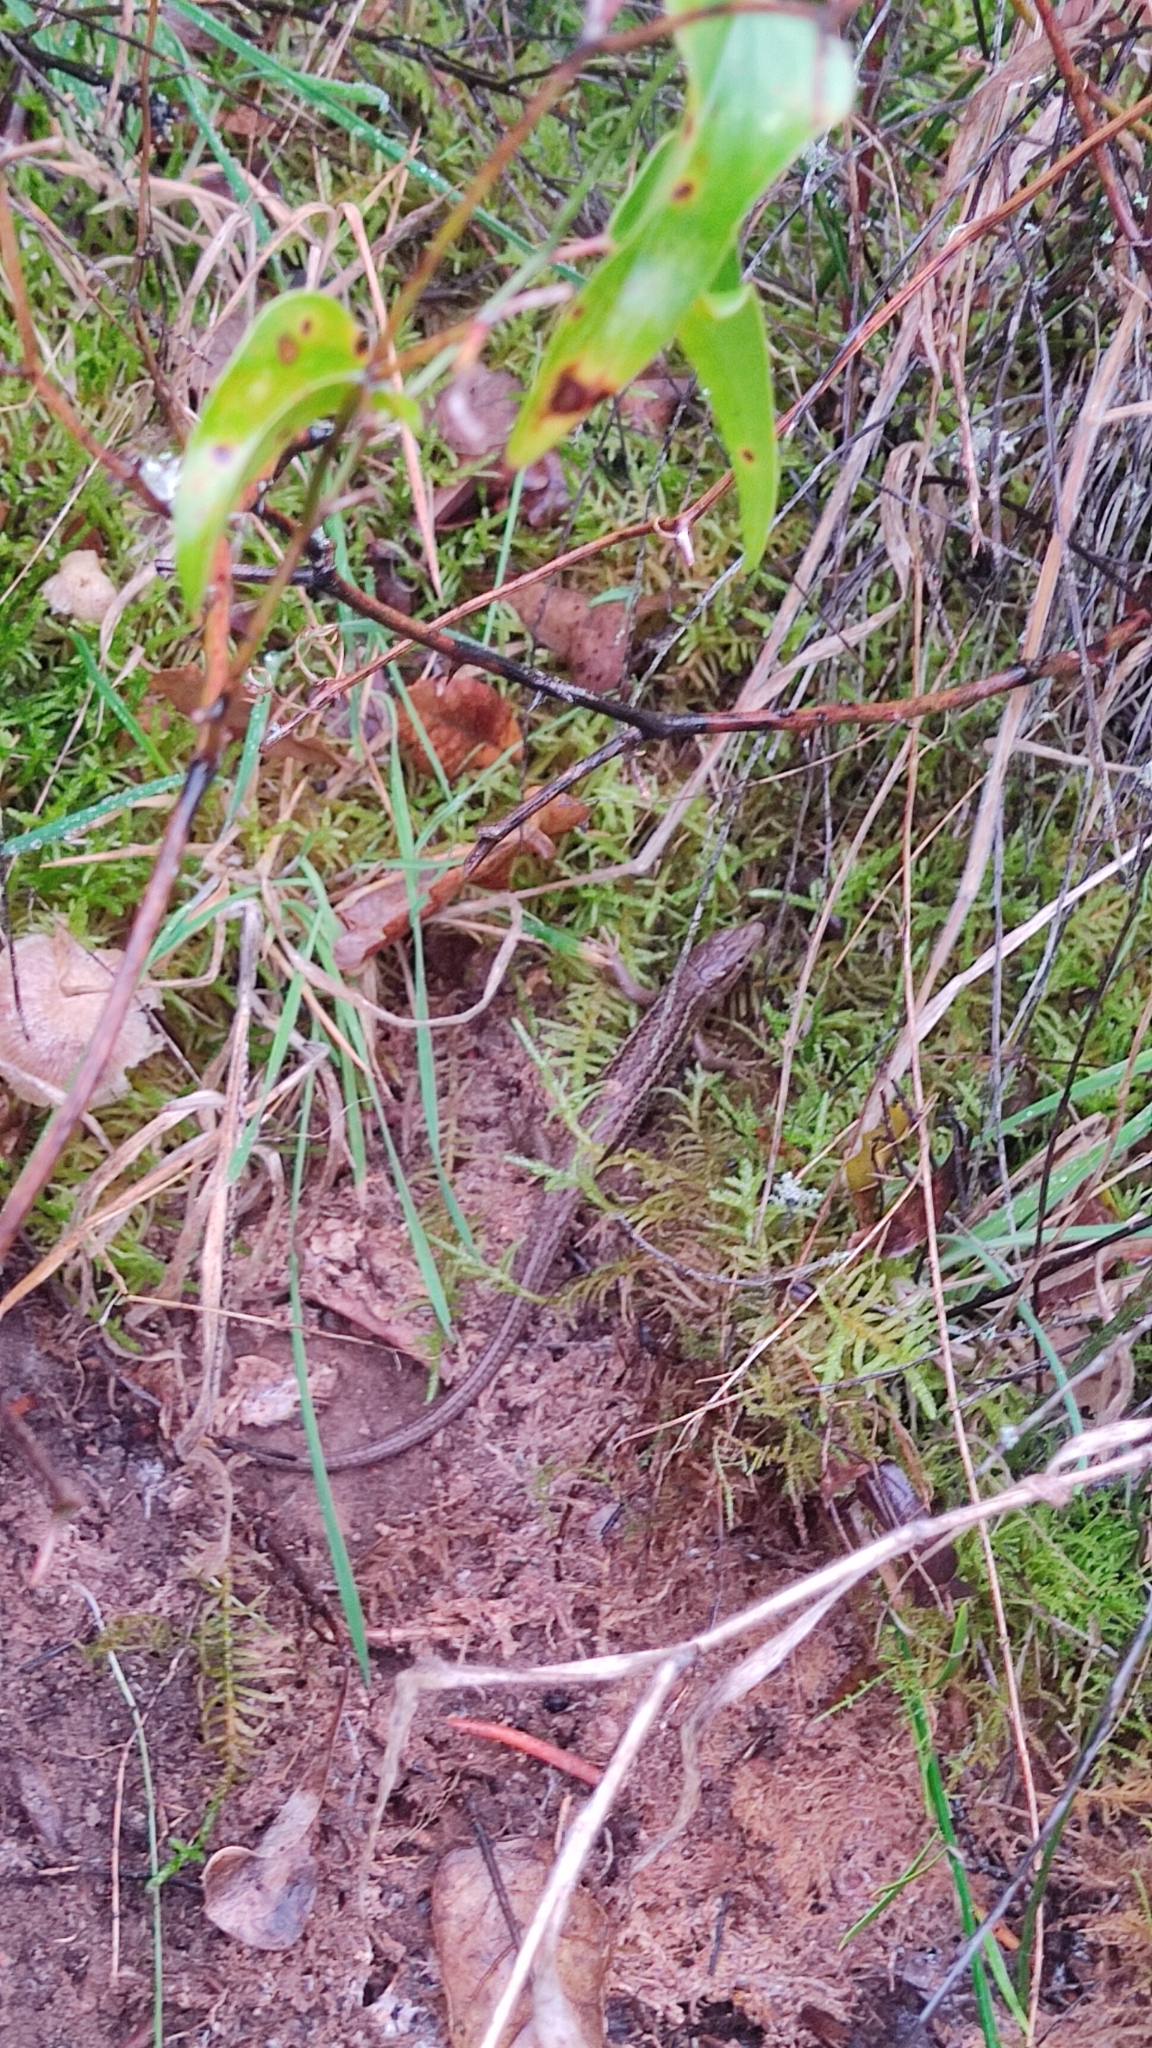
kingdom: Animalia
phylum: Chordata
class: Squamata
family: Lacertidae
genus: Psammodromus
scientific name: Psammodromus algirus
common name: Algerian psammodromus
